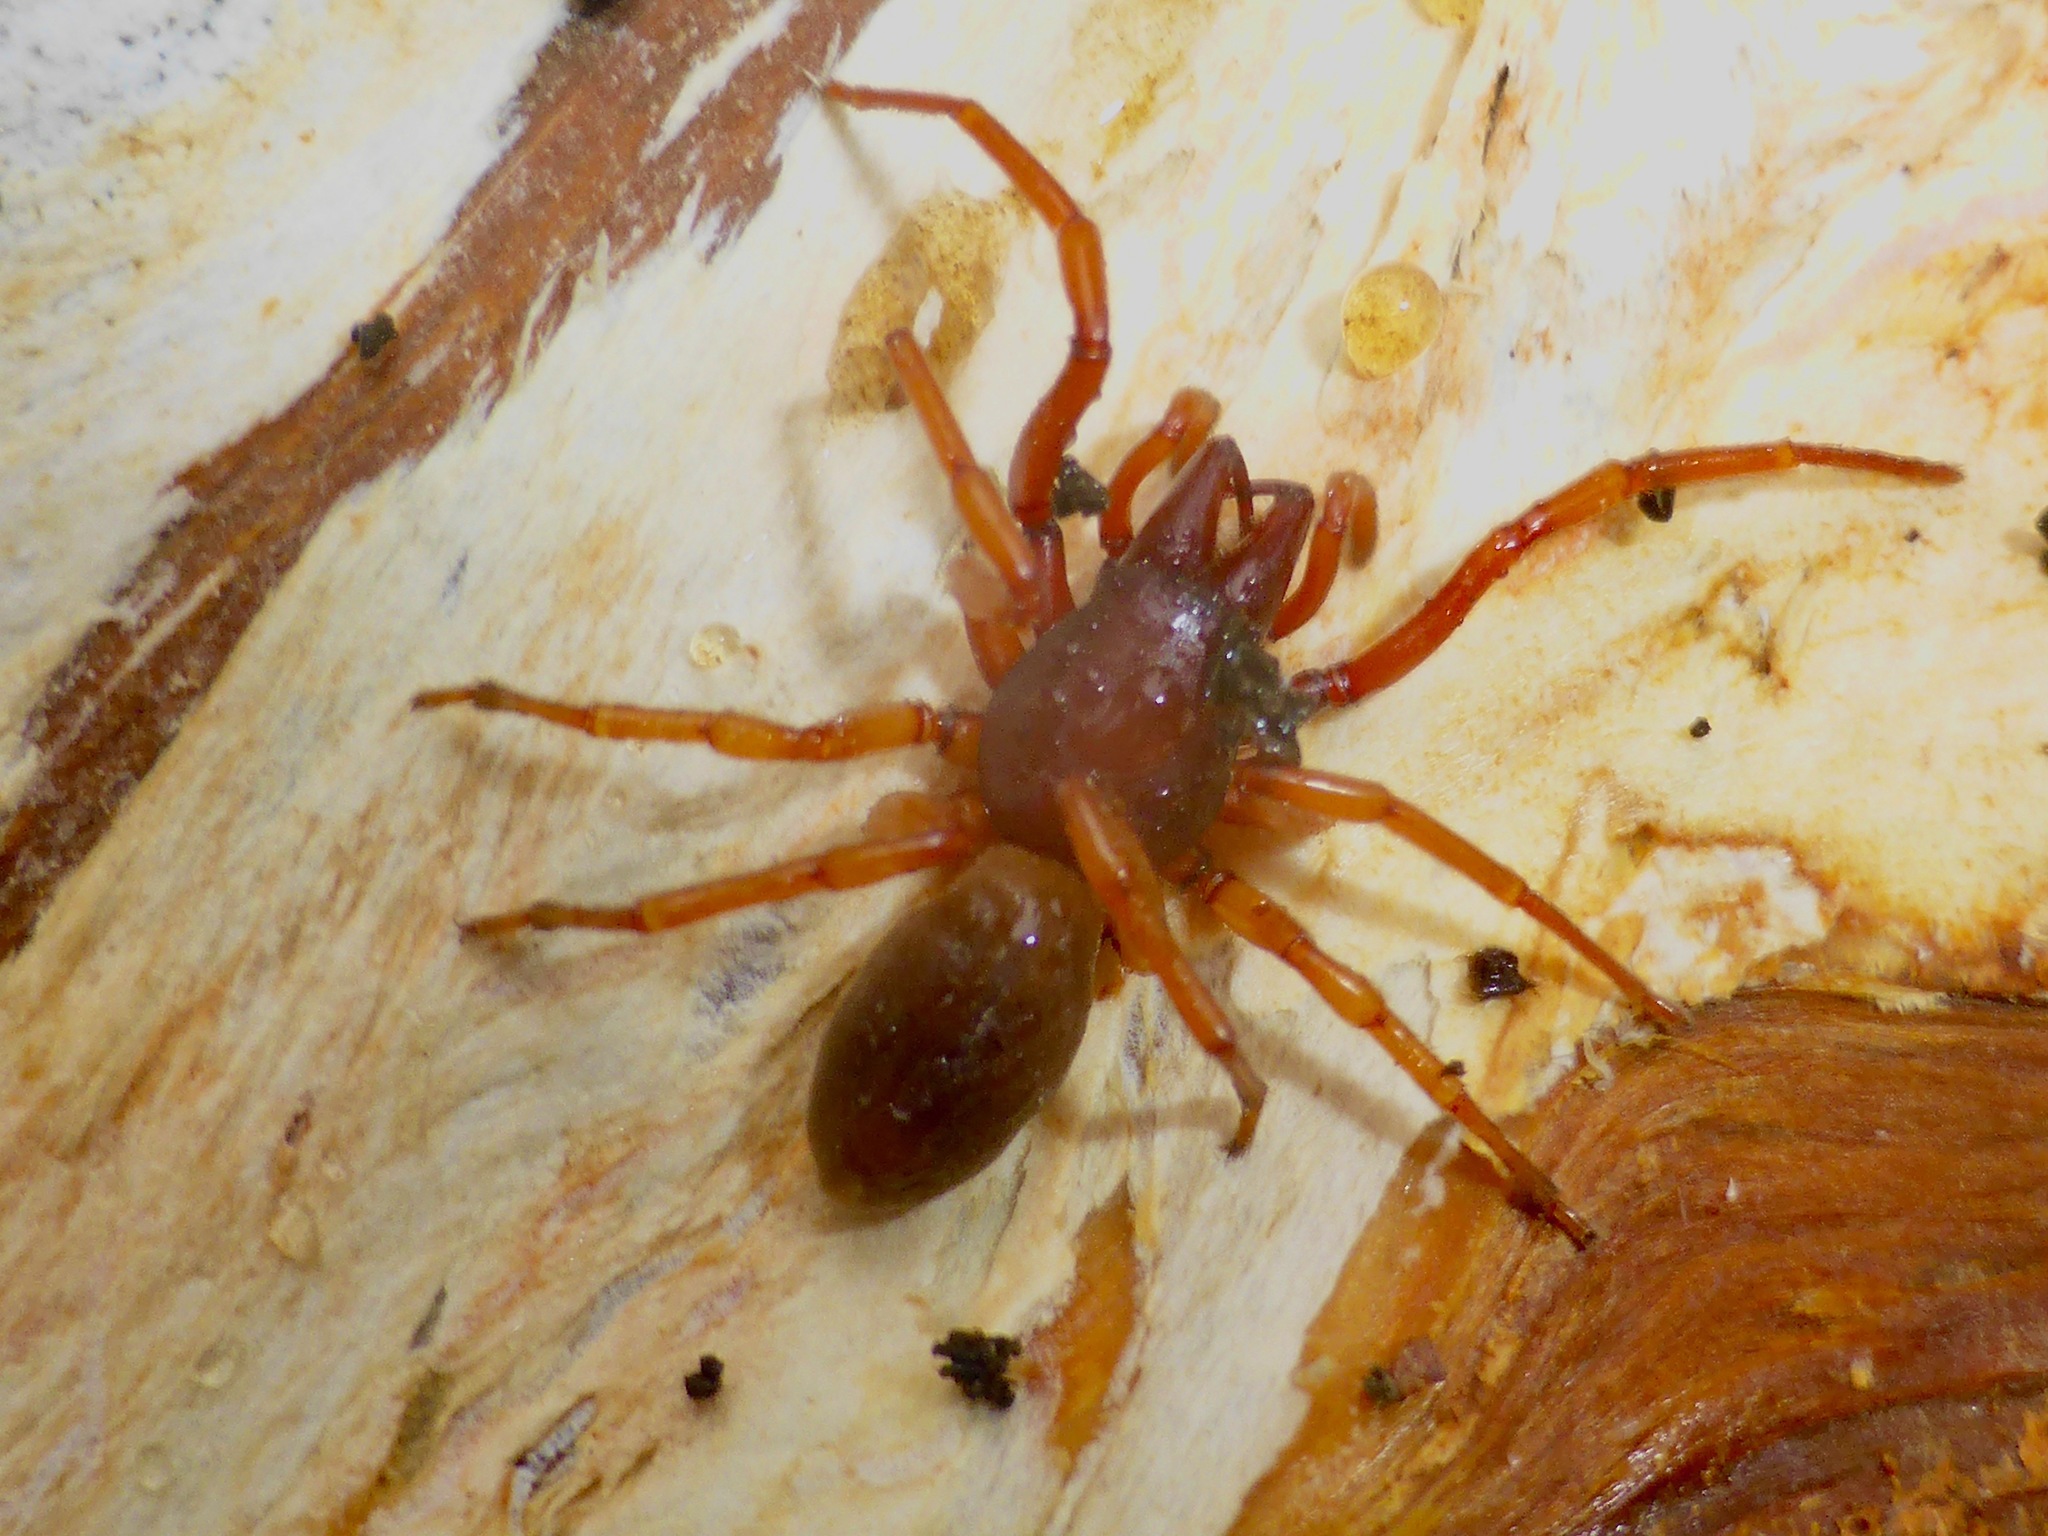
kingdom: Animalia
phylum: Arthropoda
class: Arachnida
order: Araneae
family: Dysderidae
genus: Dysdera
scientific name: Dysdera crocata
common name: Woodlouse spider
